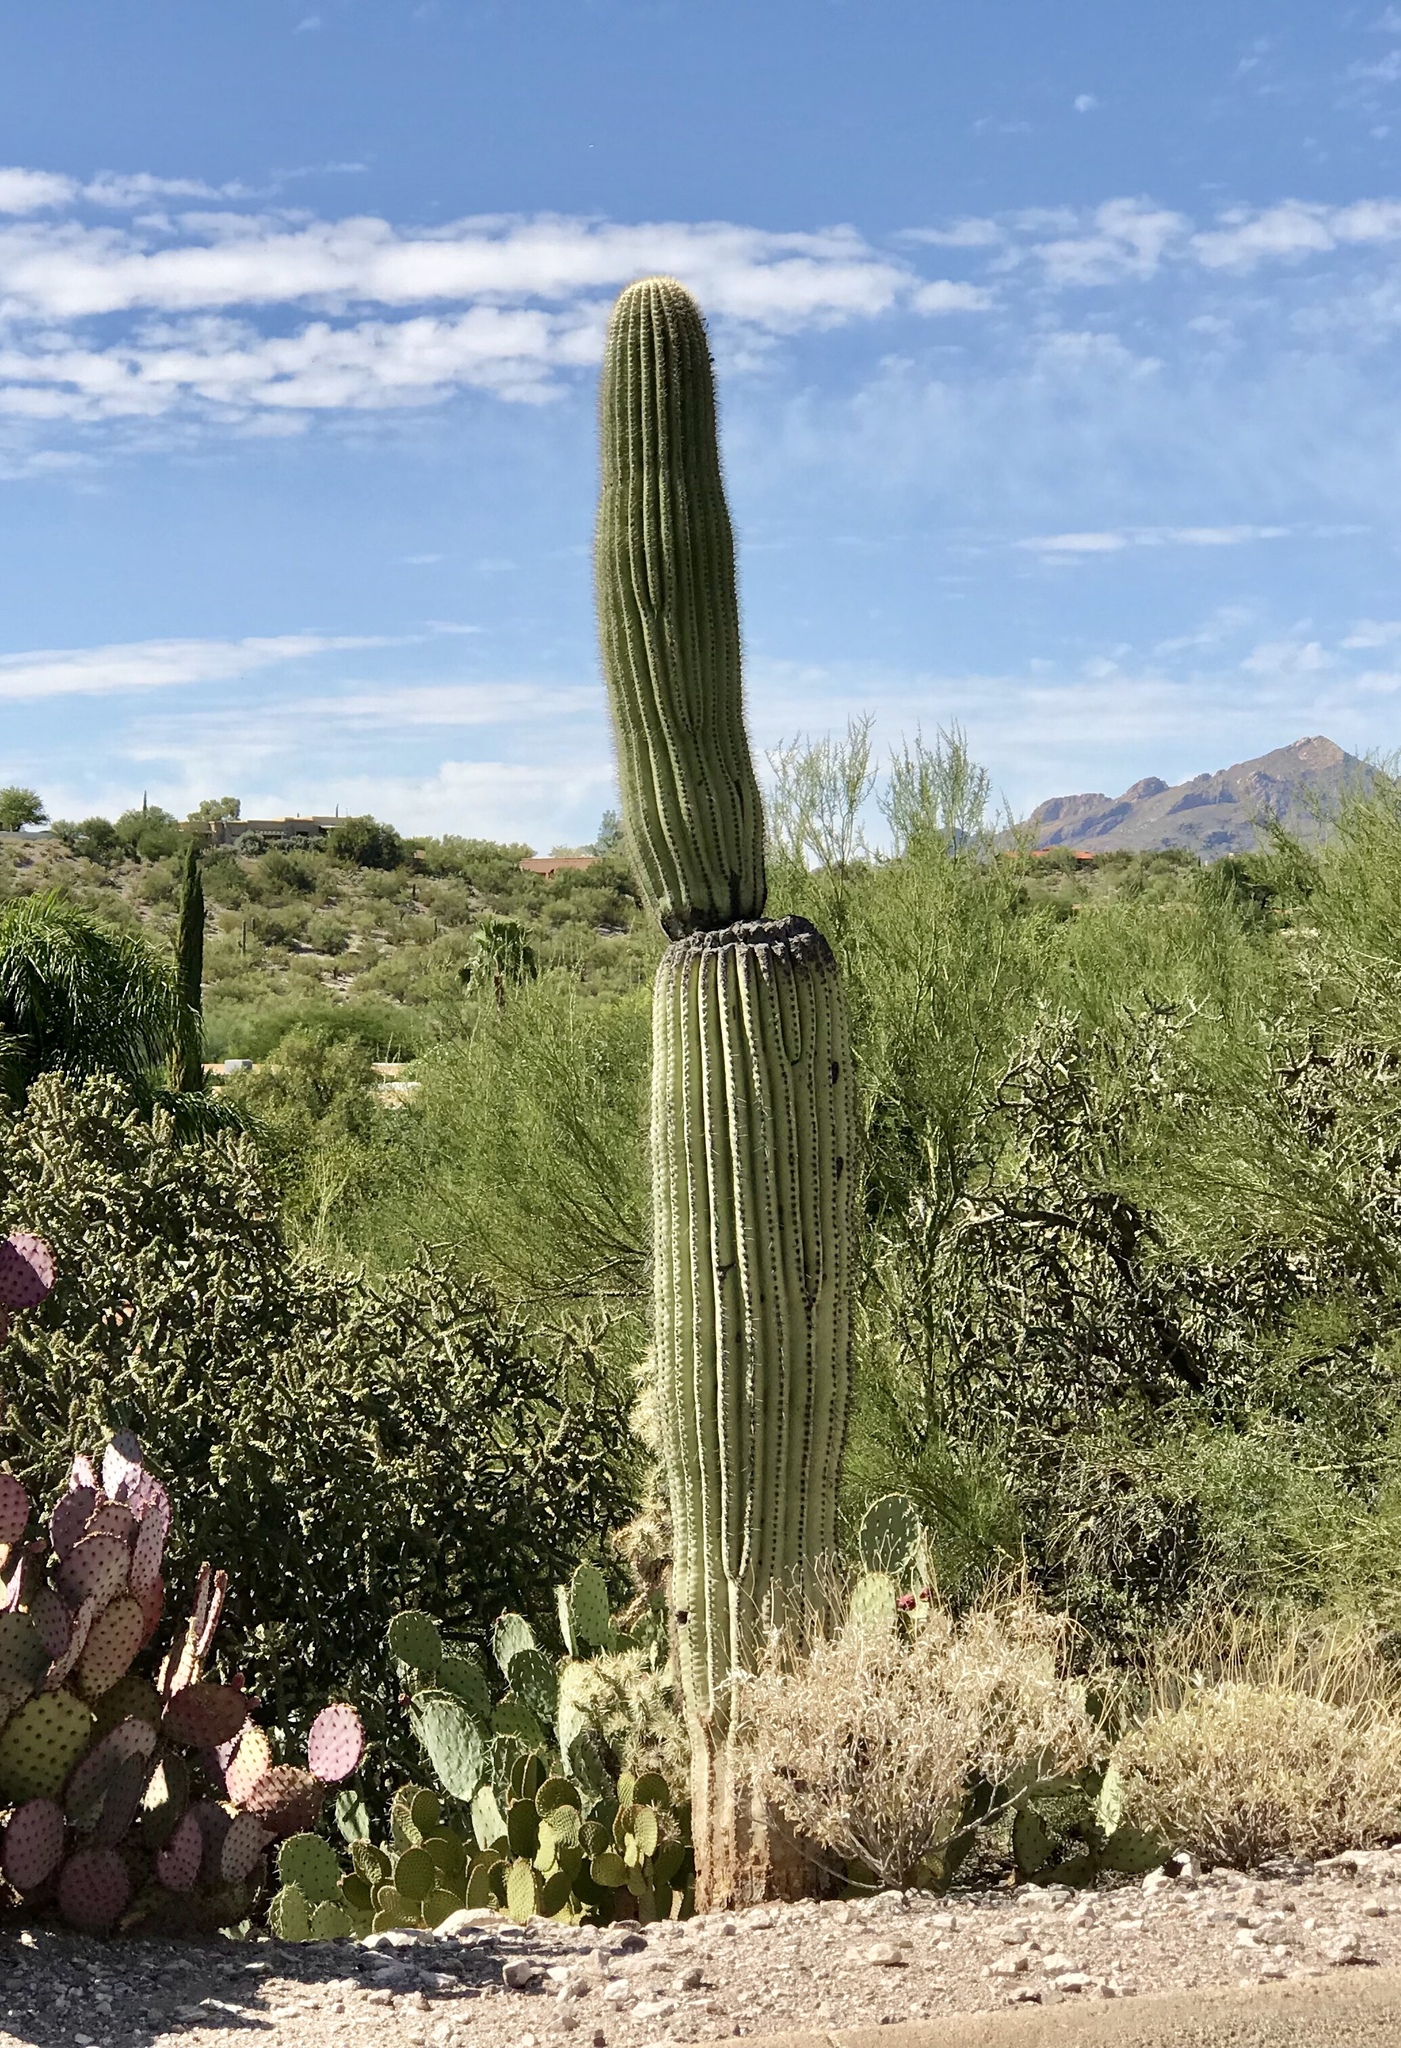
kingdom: Plantae
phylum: Tracheophyta
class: Magnoliopsida
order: Caryophyllales
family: Cactaceae
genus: Carnegiea
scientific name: Carnegiea gigantea
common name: Saguaro
